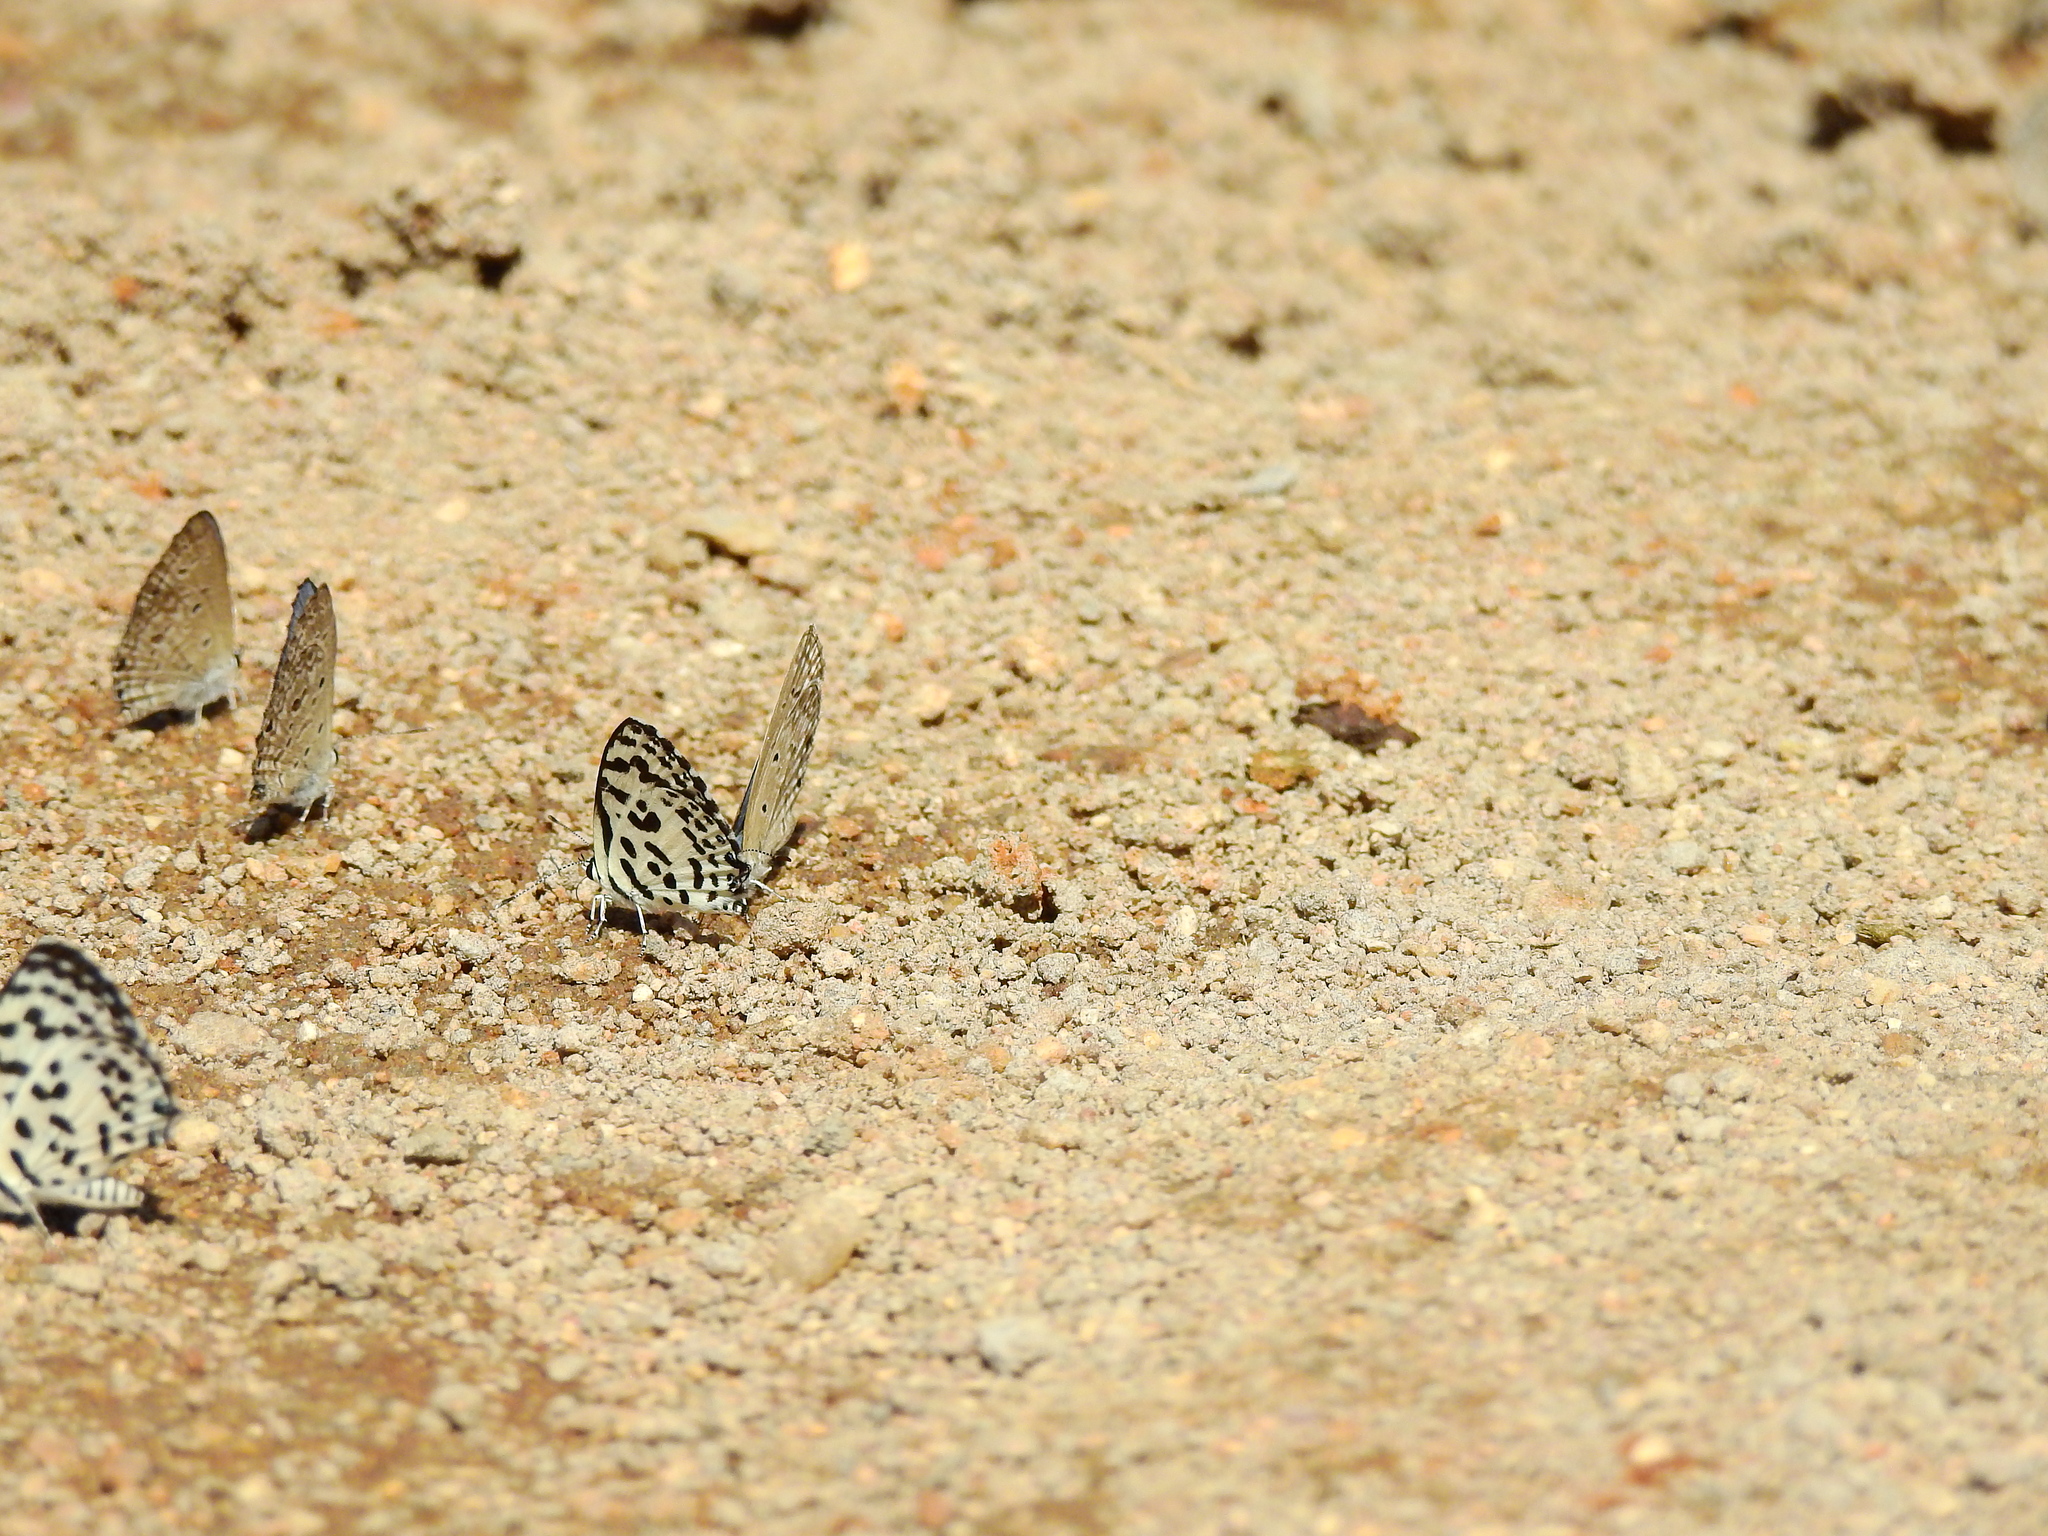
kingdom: Animalia
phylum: Arthropoda
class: Insecta
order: Lepidoptera
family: Lycaenidae
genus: Castalius
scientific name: Castalius rosimon
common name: Common pierrot
